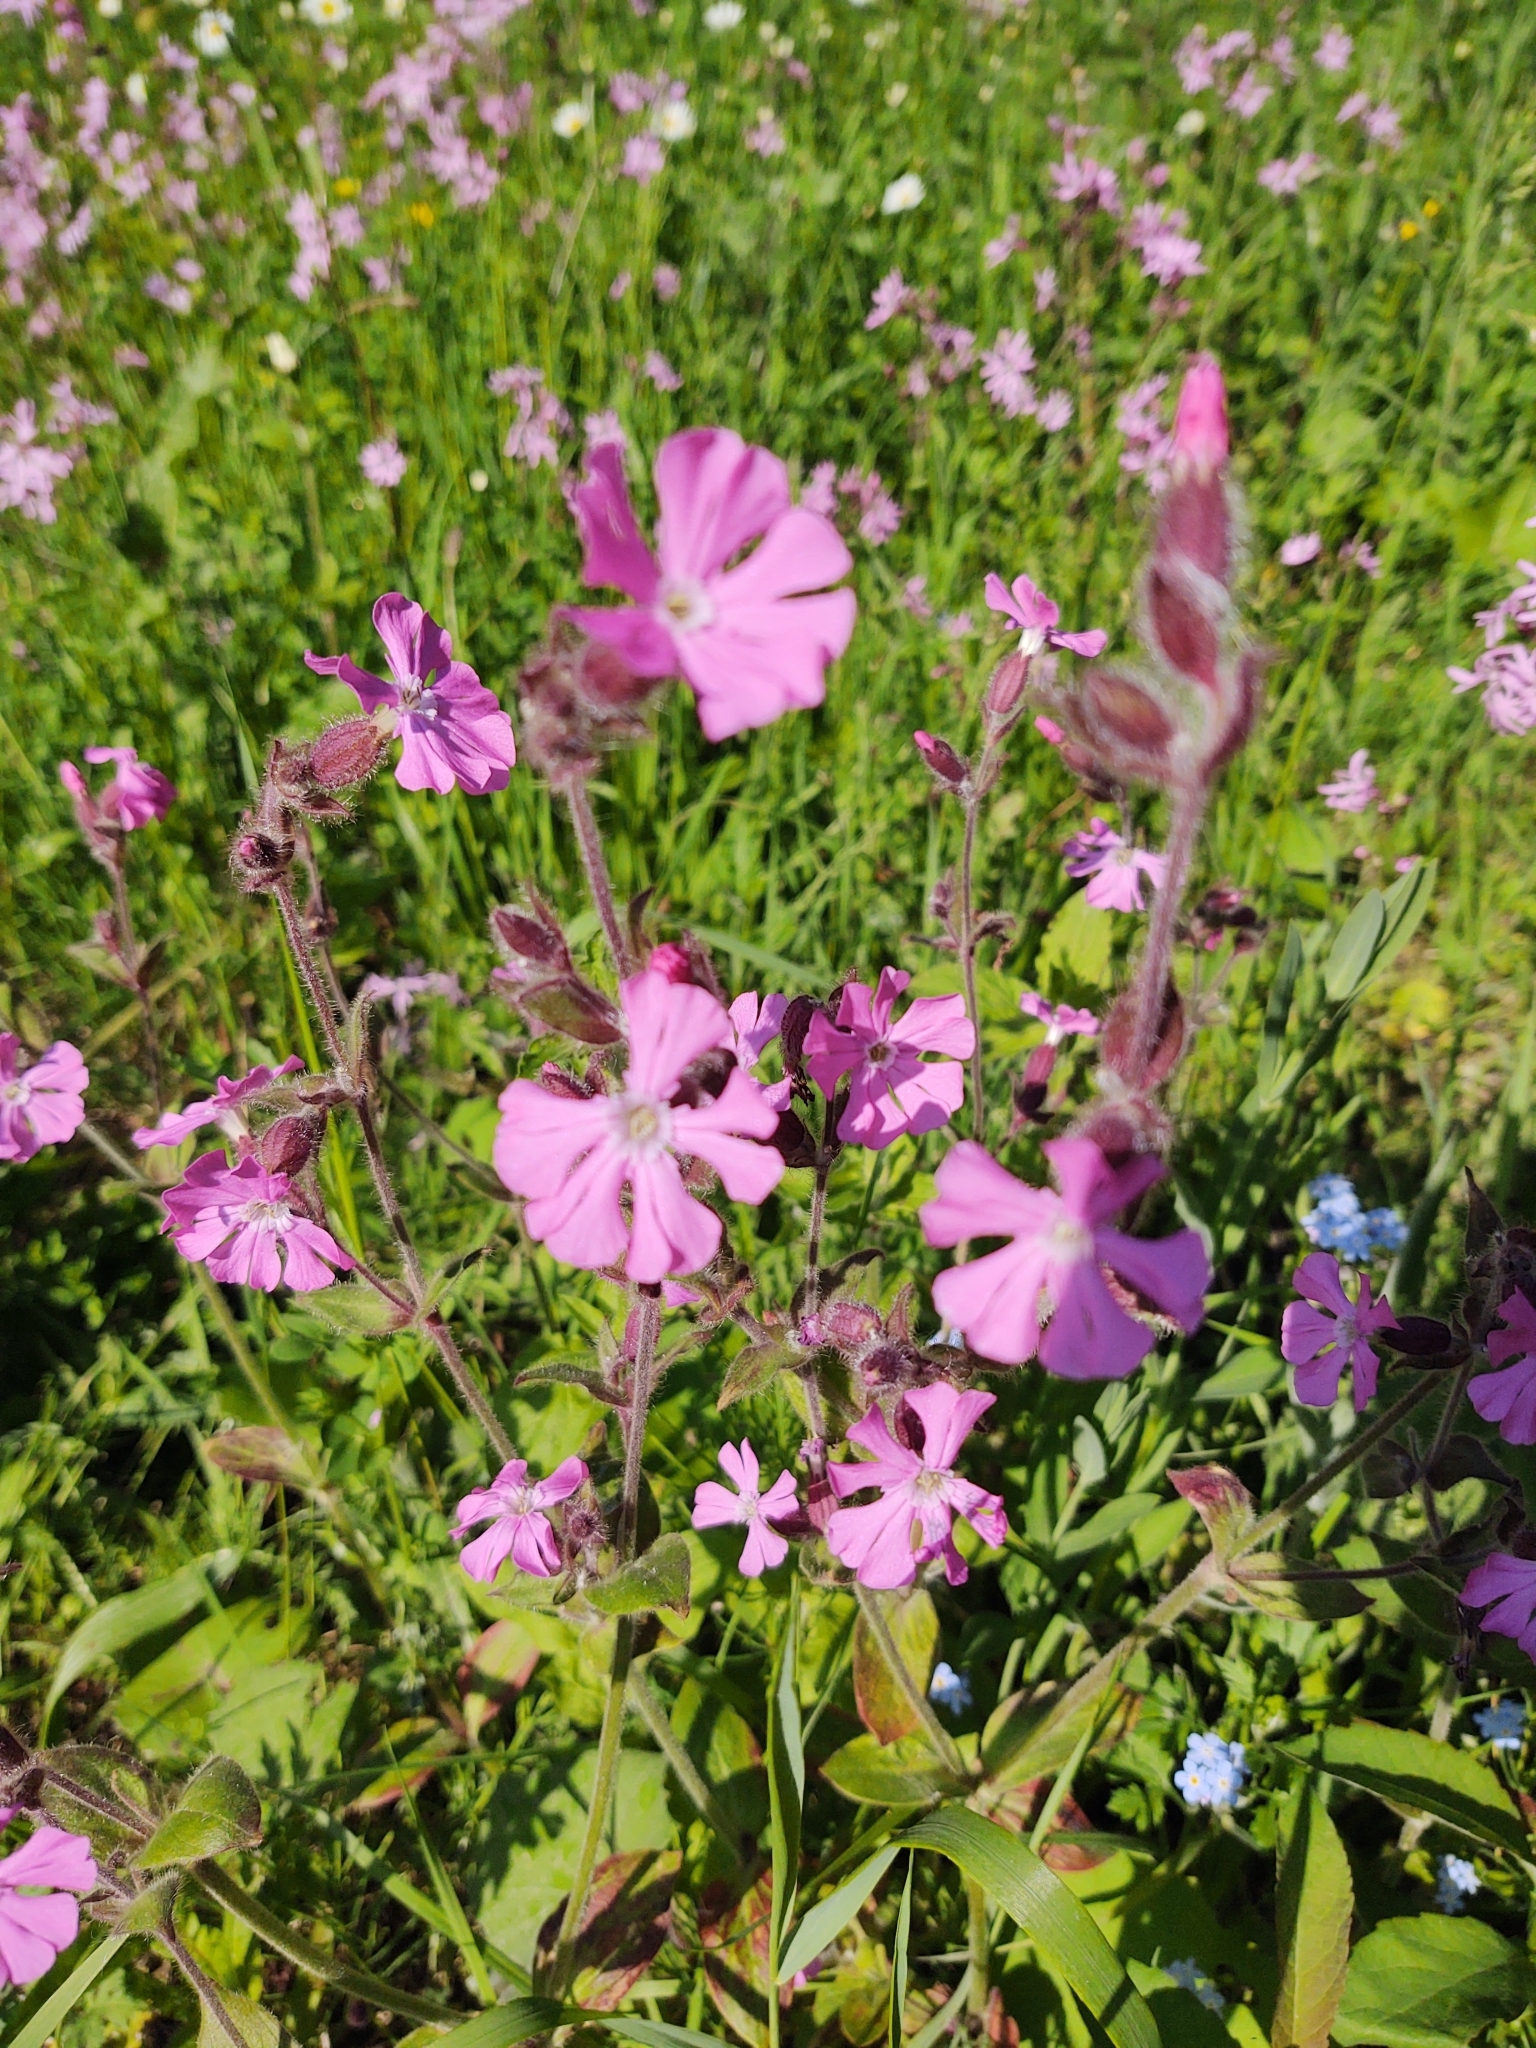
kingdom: Plantae
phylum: Tracheophyta
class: Magnoliopsida
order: Caryophyllales
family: Caryophyllaceae
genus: Silene
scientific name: Silene dioica
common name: Red campion
